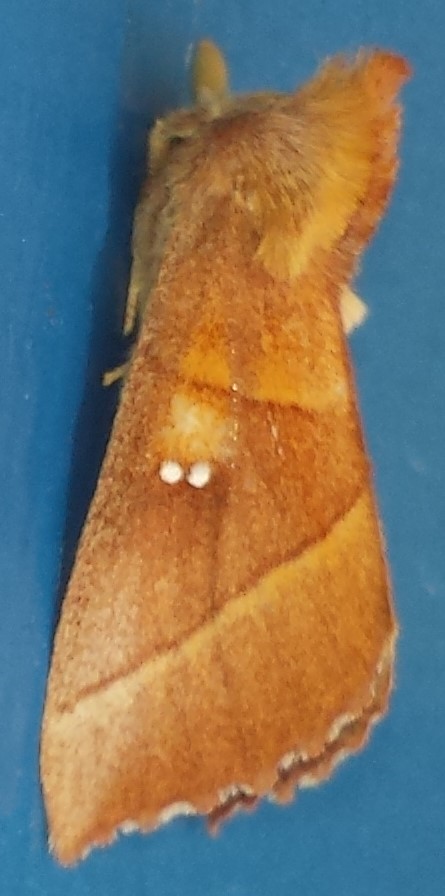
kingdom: Animalia
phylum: Arthropoda
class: Insecta
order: Lepidoptera
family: Notodontidae
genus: Nadata
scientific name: Nadata gibbosa
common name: White-dotted prominent
